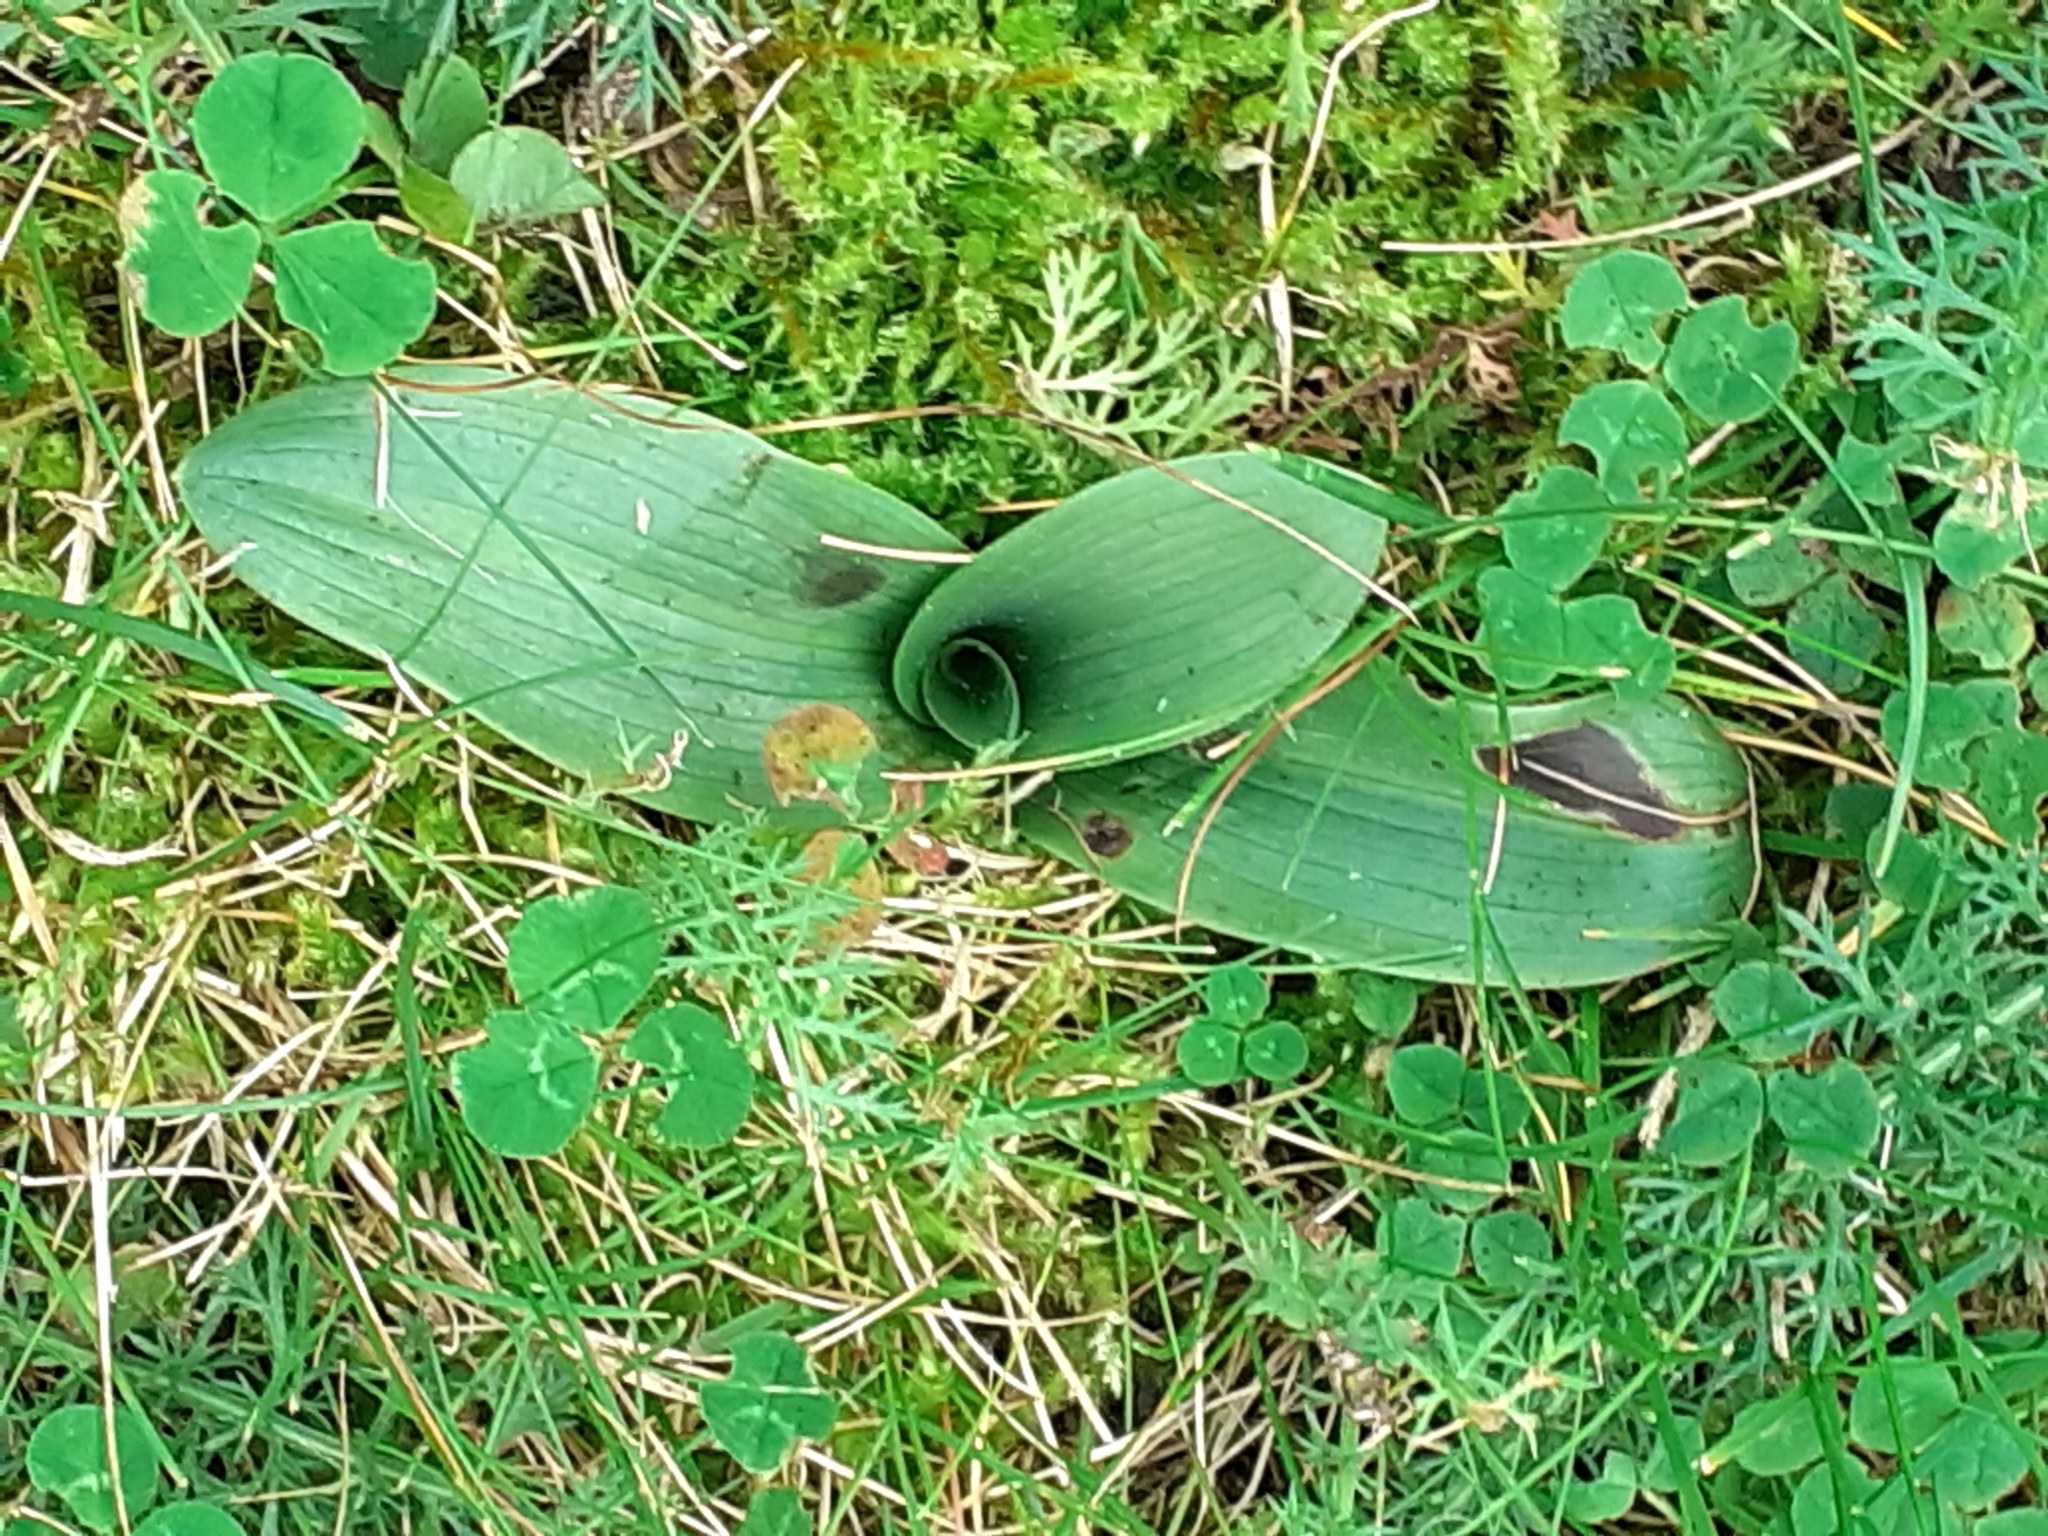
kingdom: Plantae
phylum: Tracheophyta
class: Liliopsida
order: Asparagales
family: Orchidaceae
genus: Ophrys
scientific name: Ophrys apifera
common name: Bee orchid
